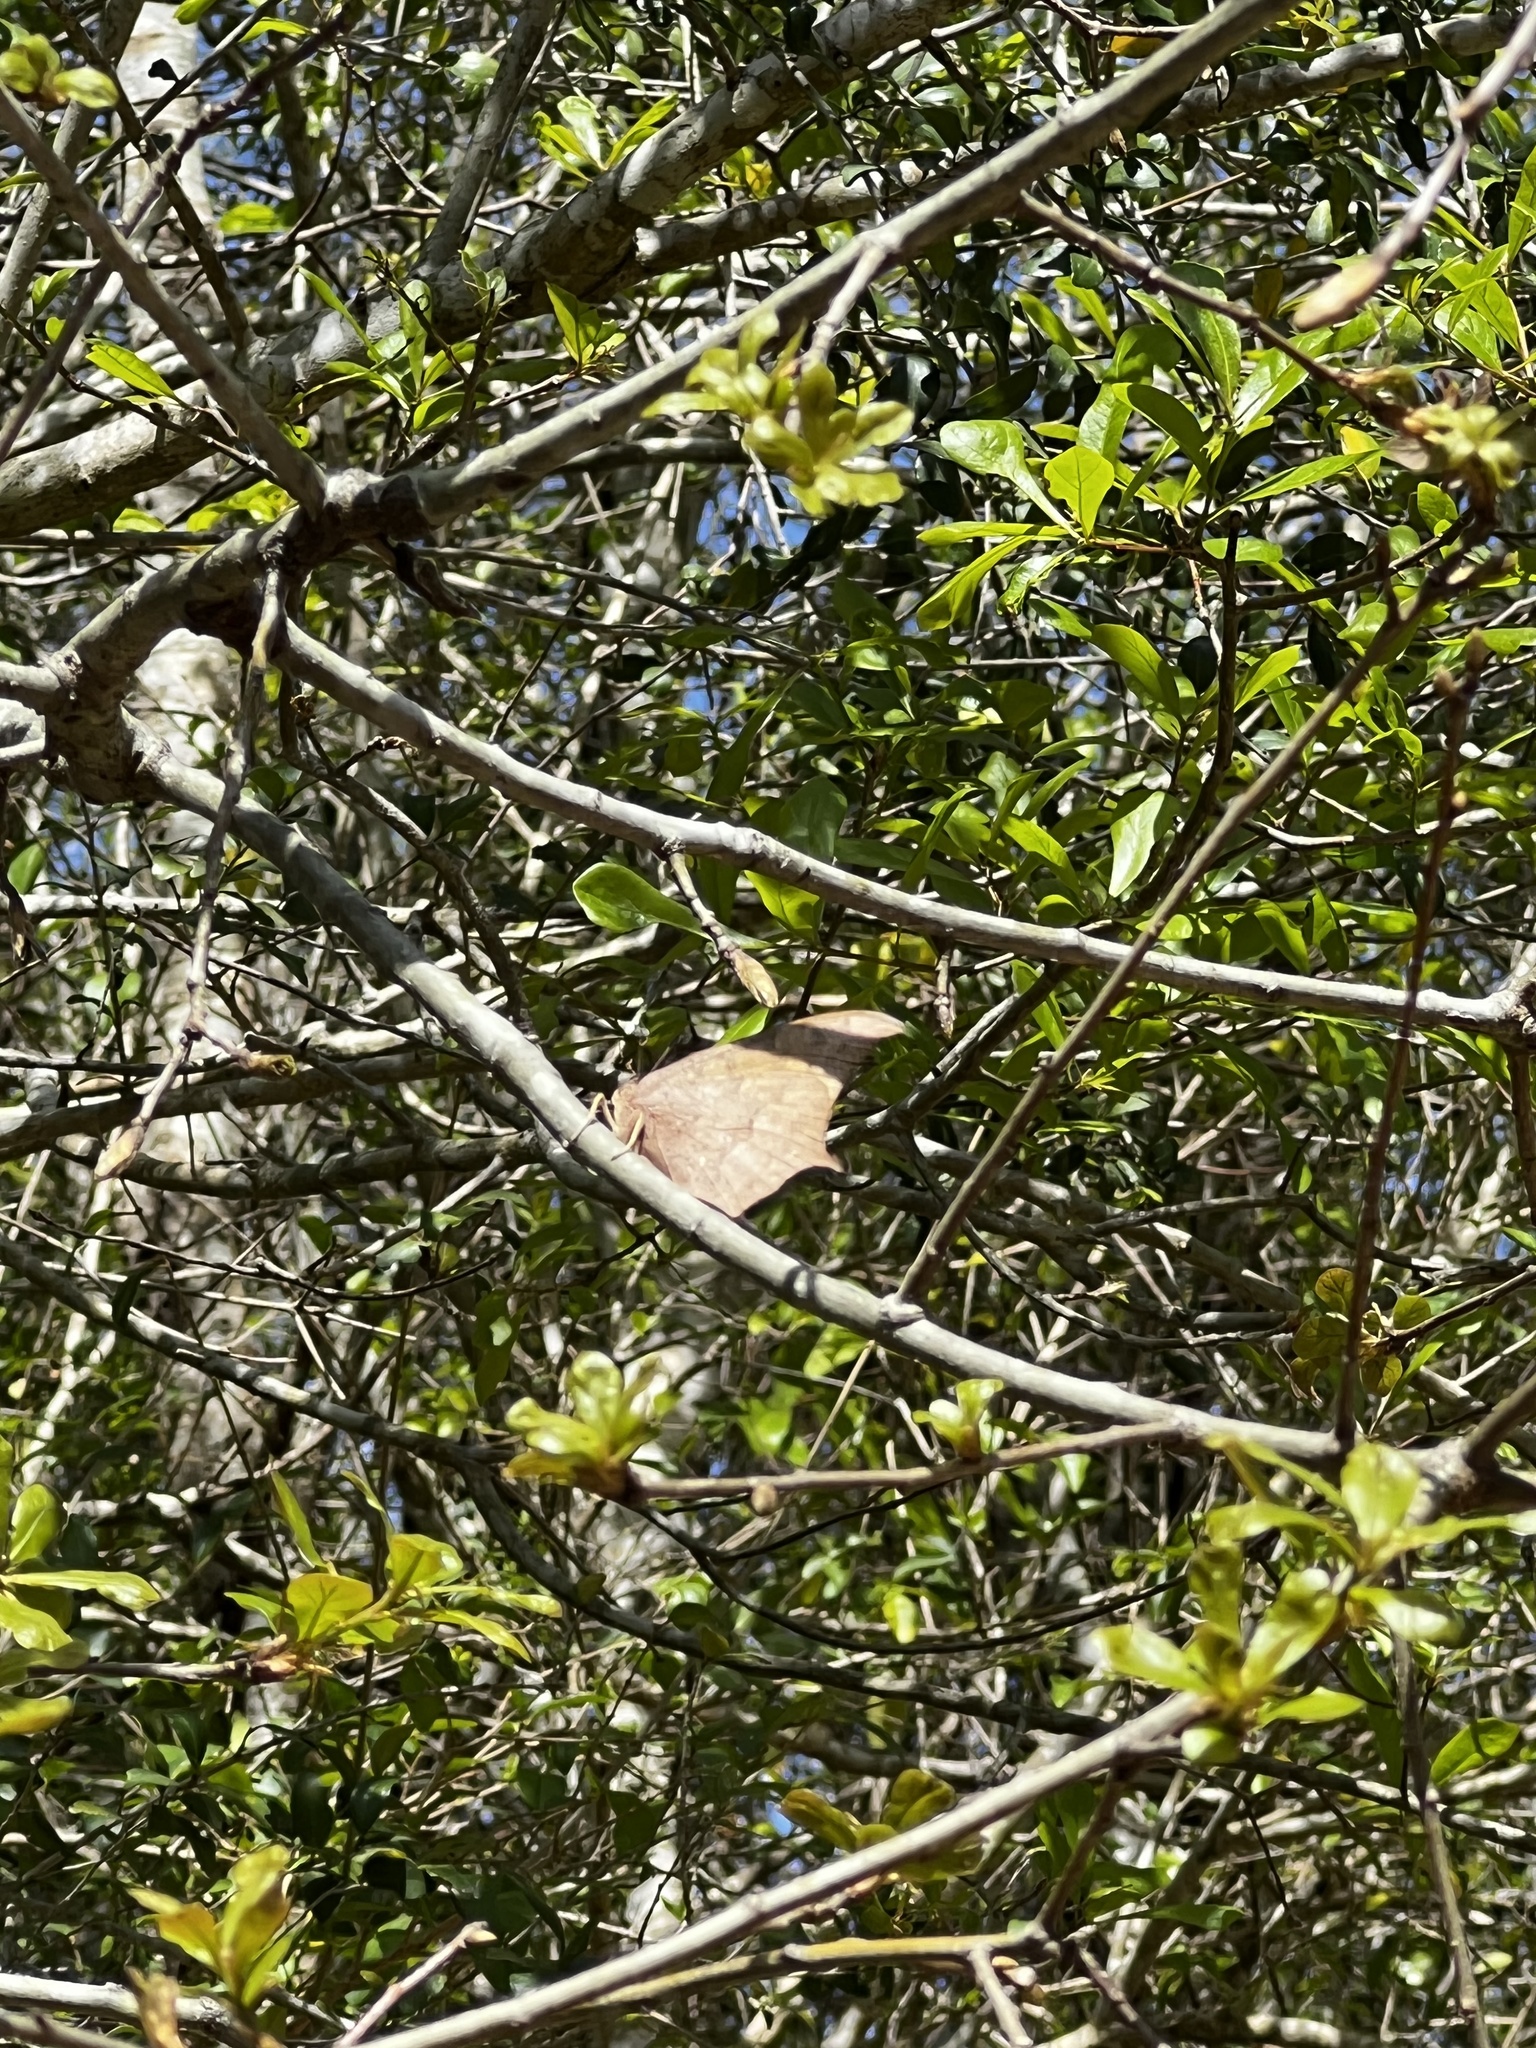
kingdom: Animalia
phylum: Arthropoda
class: Insecta
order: Lepidoptera
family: Nymphalidae
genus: Anaea
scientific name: Anaea andria
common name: Goatweed leafwing
